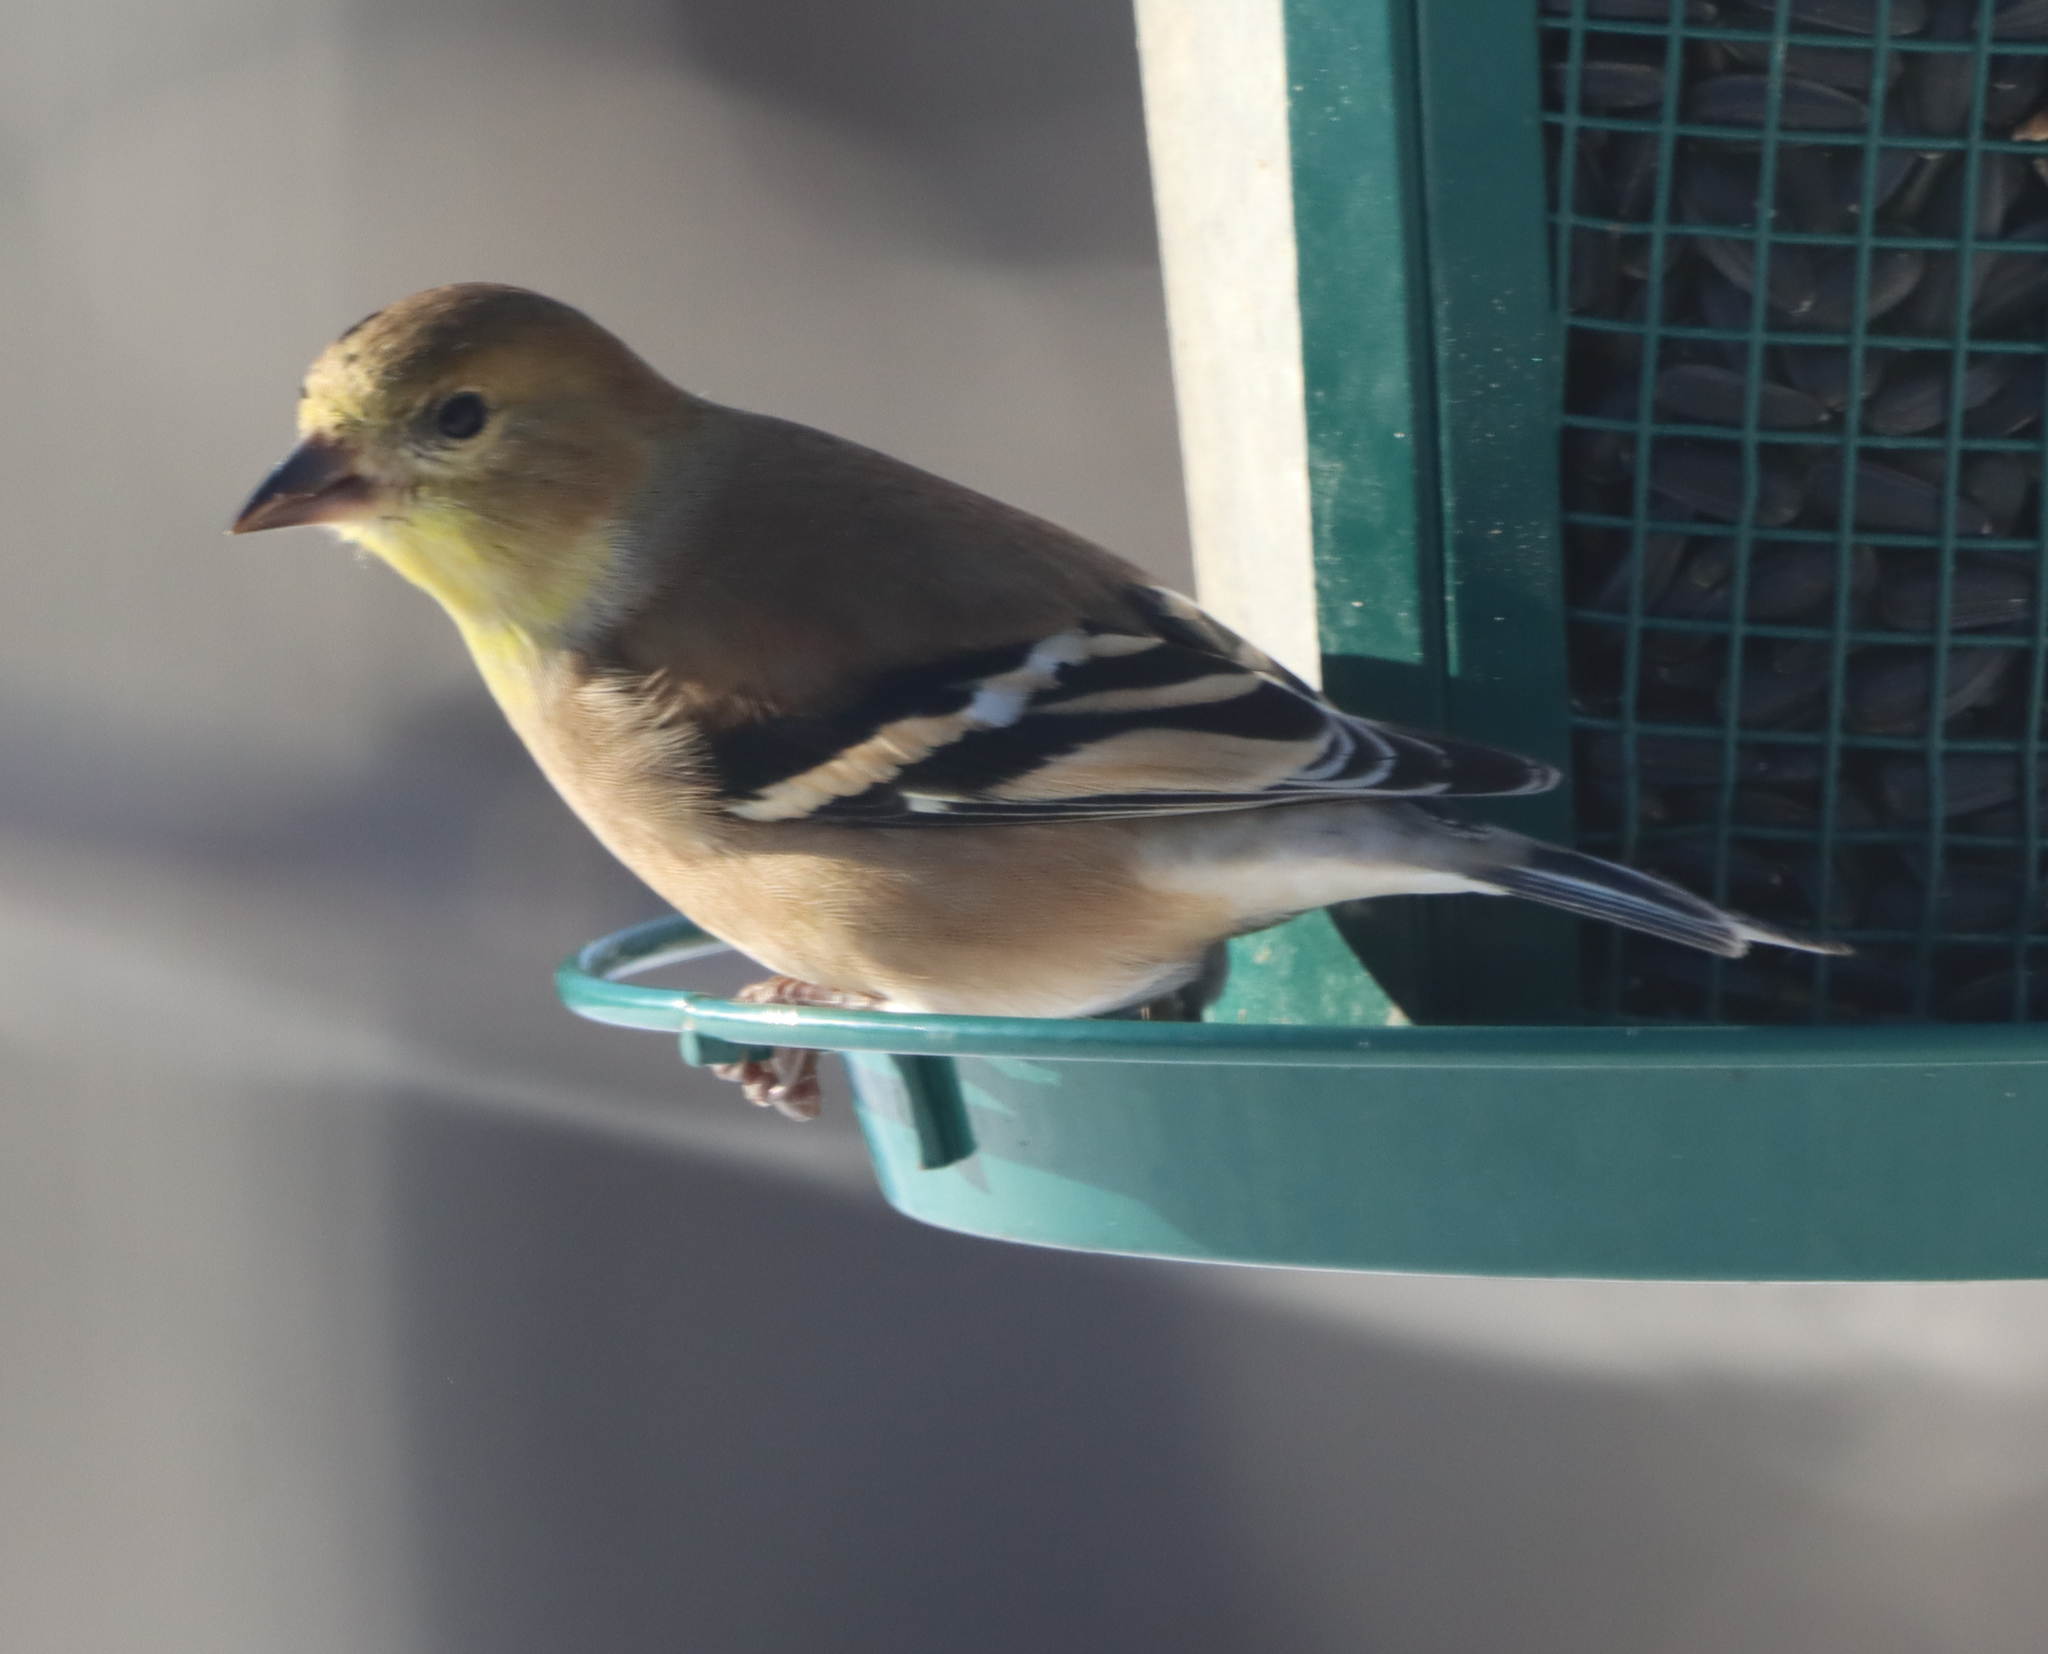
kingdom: Animalia
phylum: Chordata
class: Aves
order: Passeriformes
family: Fringillidae
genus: Spinus
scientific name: Spinus tristis
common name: American goldfinch
